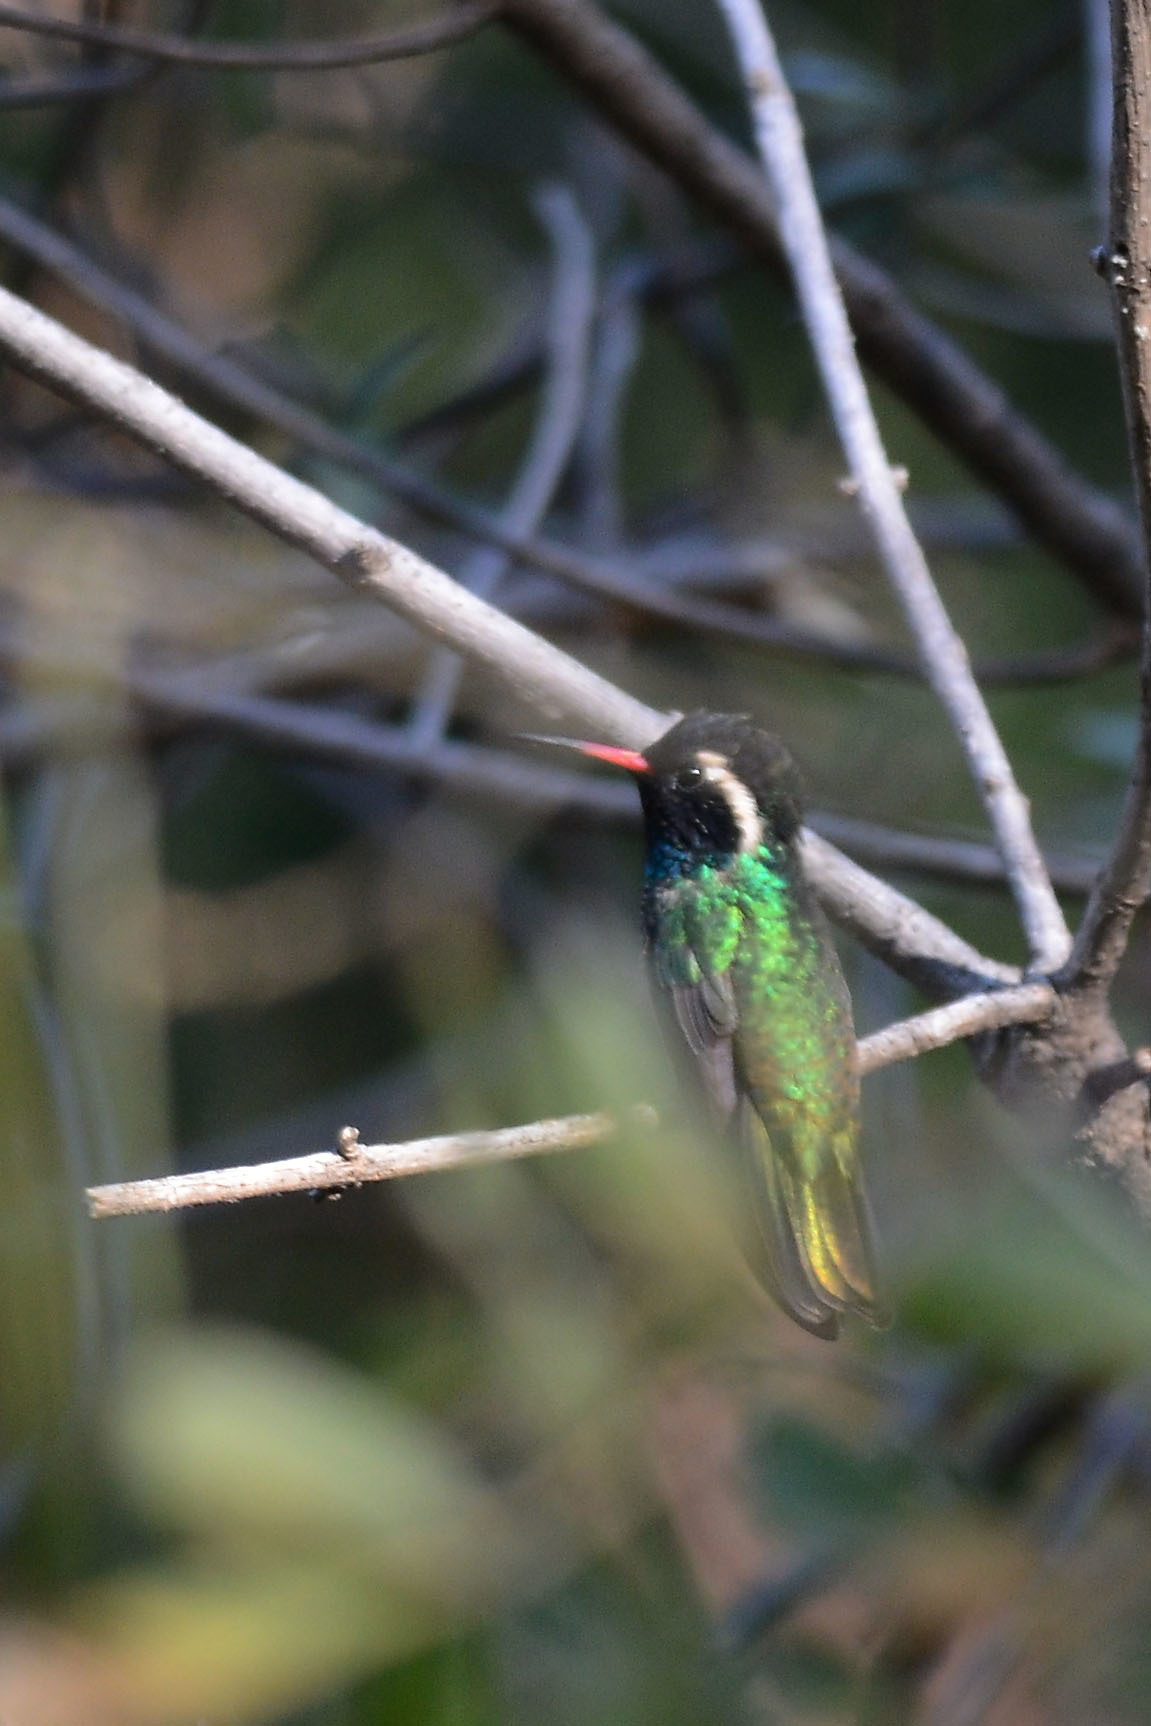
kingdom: Animalia
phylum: Chordata
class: Aves
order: Apodiformes
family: Trochilidae
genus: Basilinna
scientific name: Basilinna leucotis
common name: White-eared hummingbird
